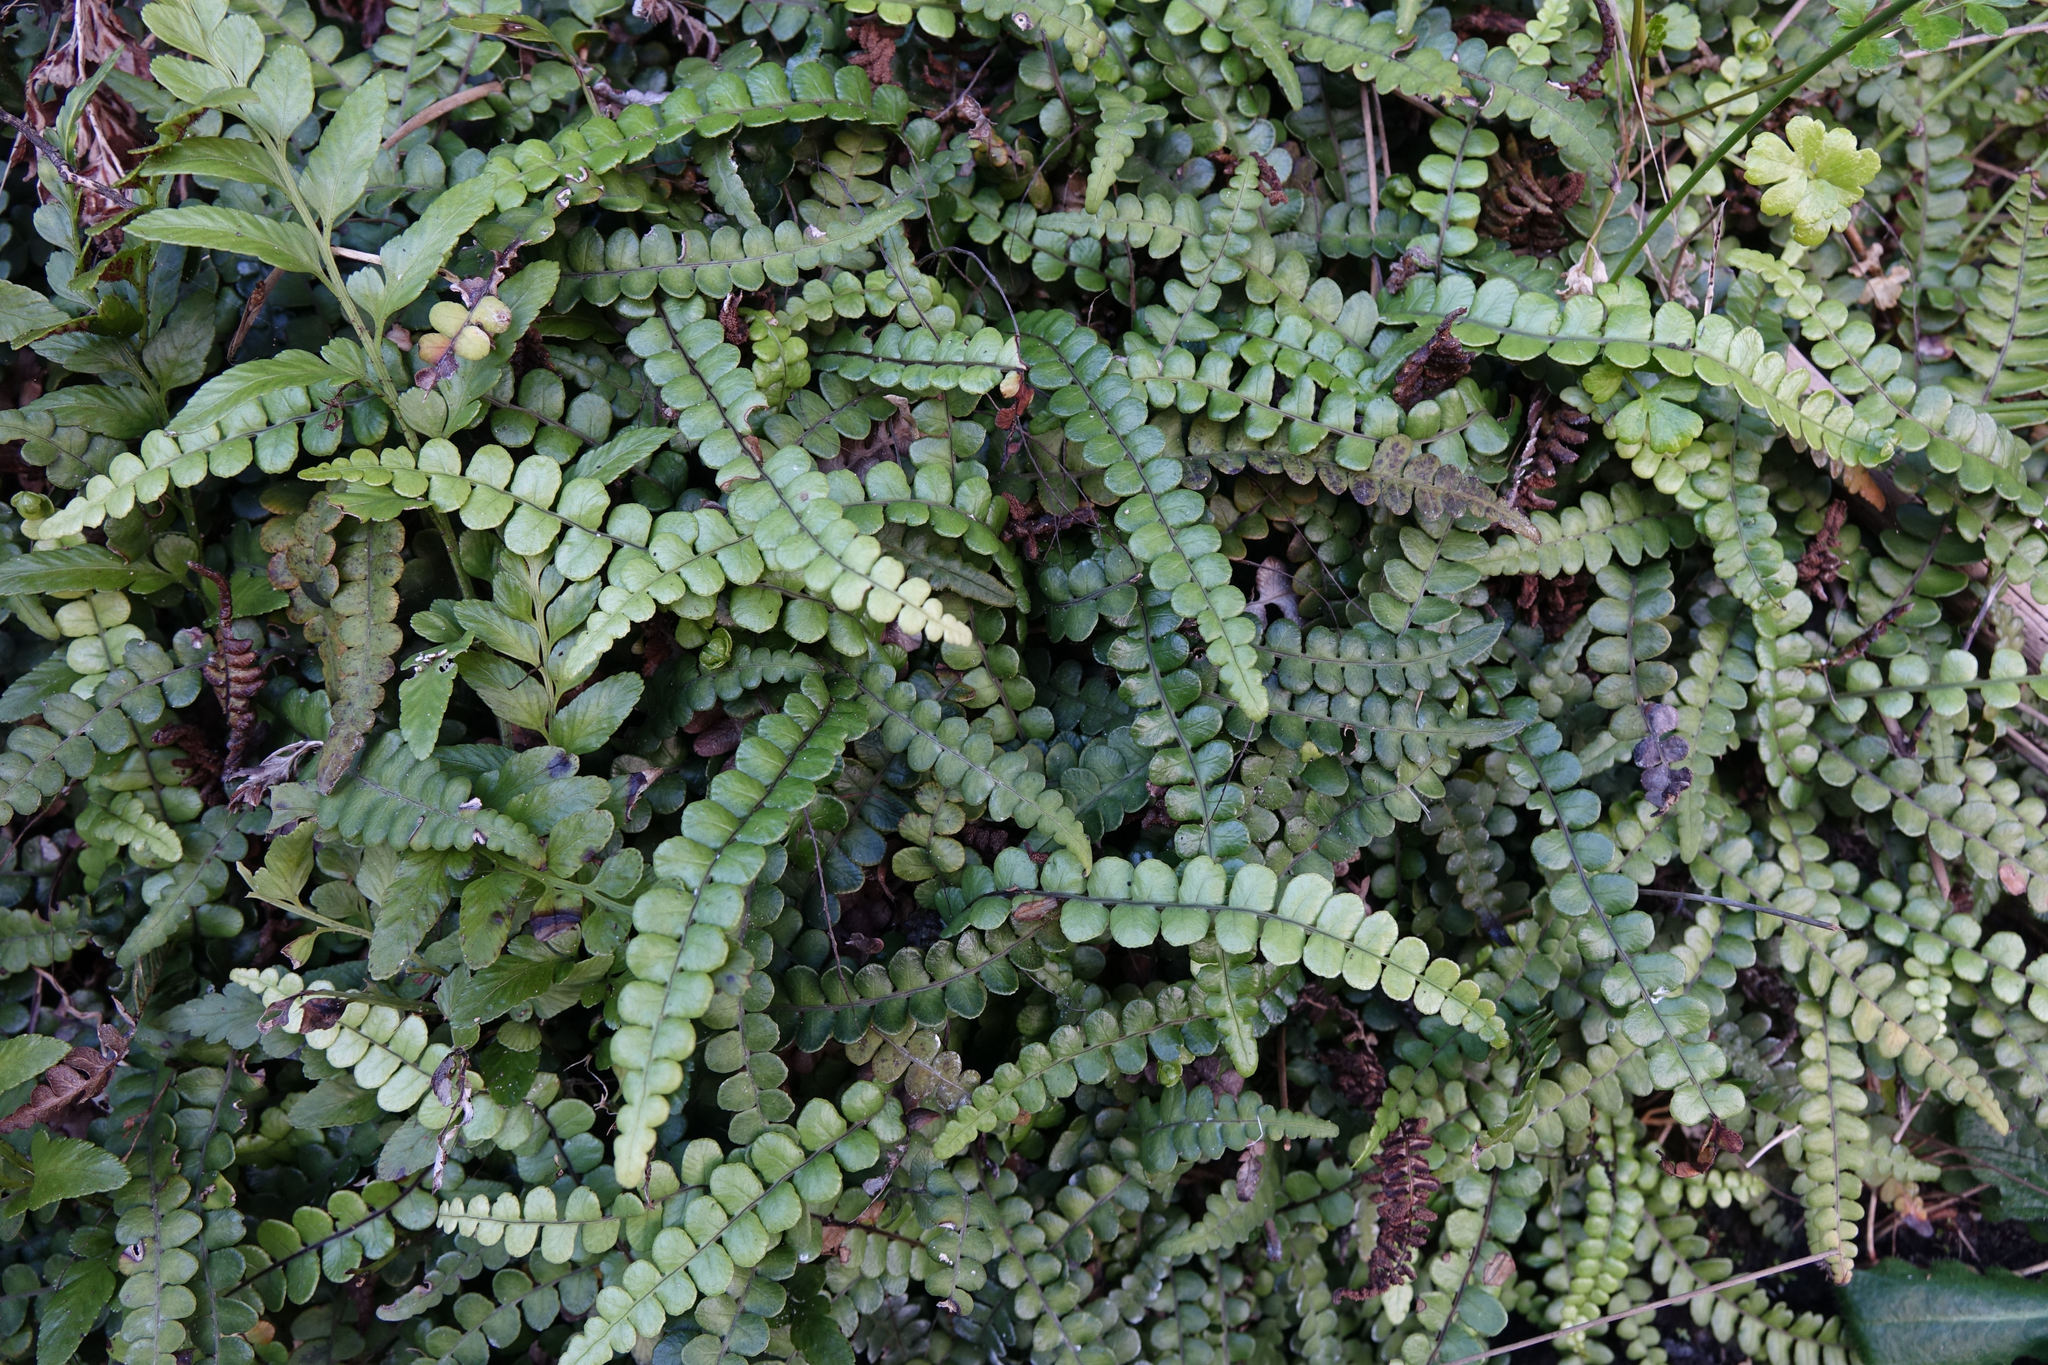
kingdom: Plantae
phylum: Tracheophyta
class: Polypodiopsida
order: Polypodiales
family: Blechnaceae
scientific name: Blechnaceae
